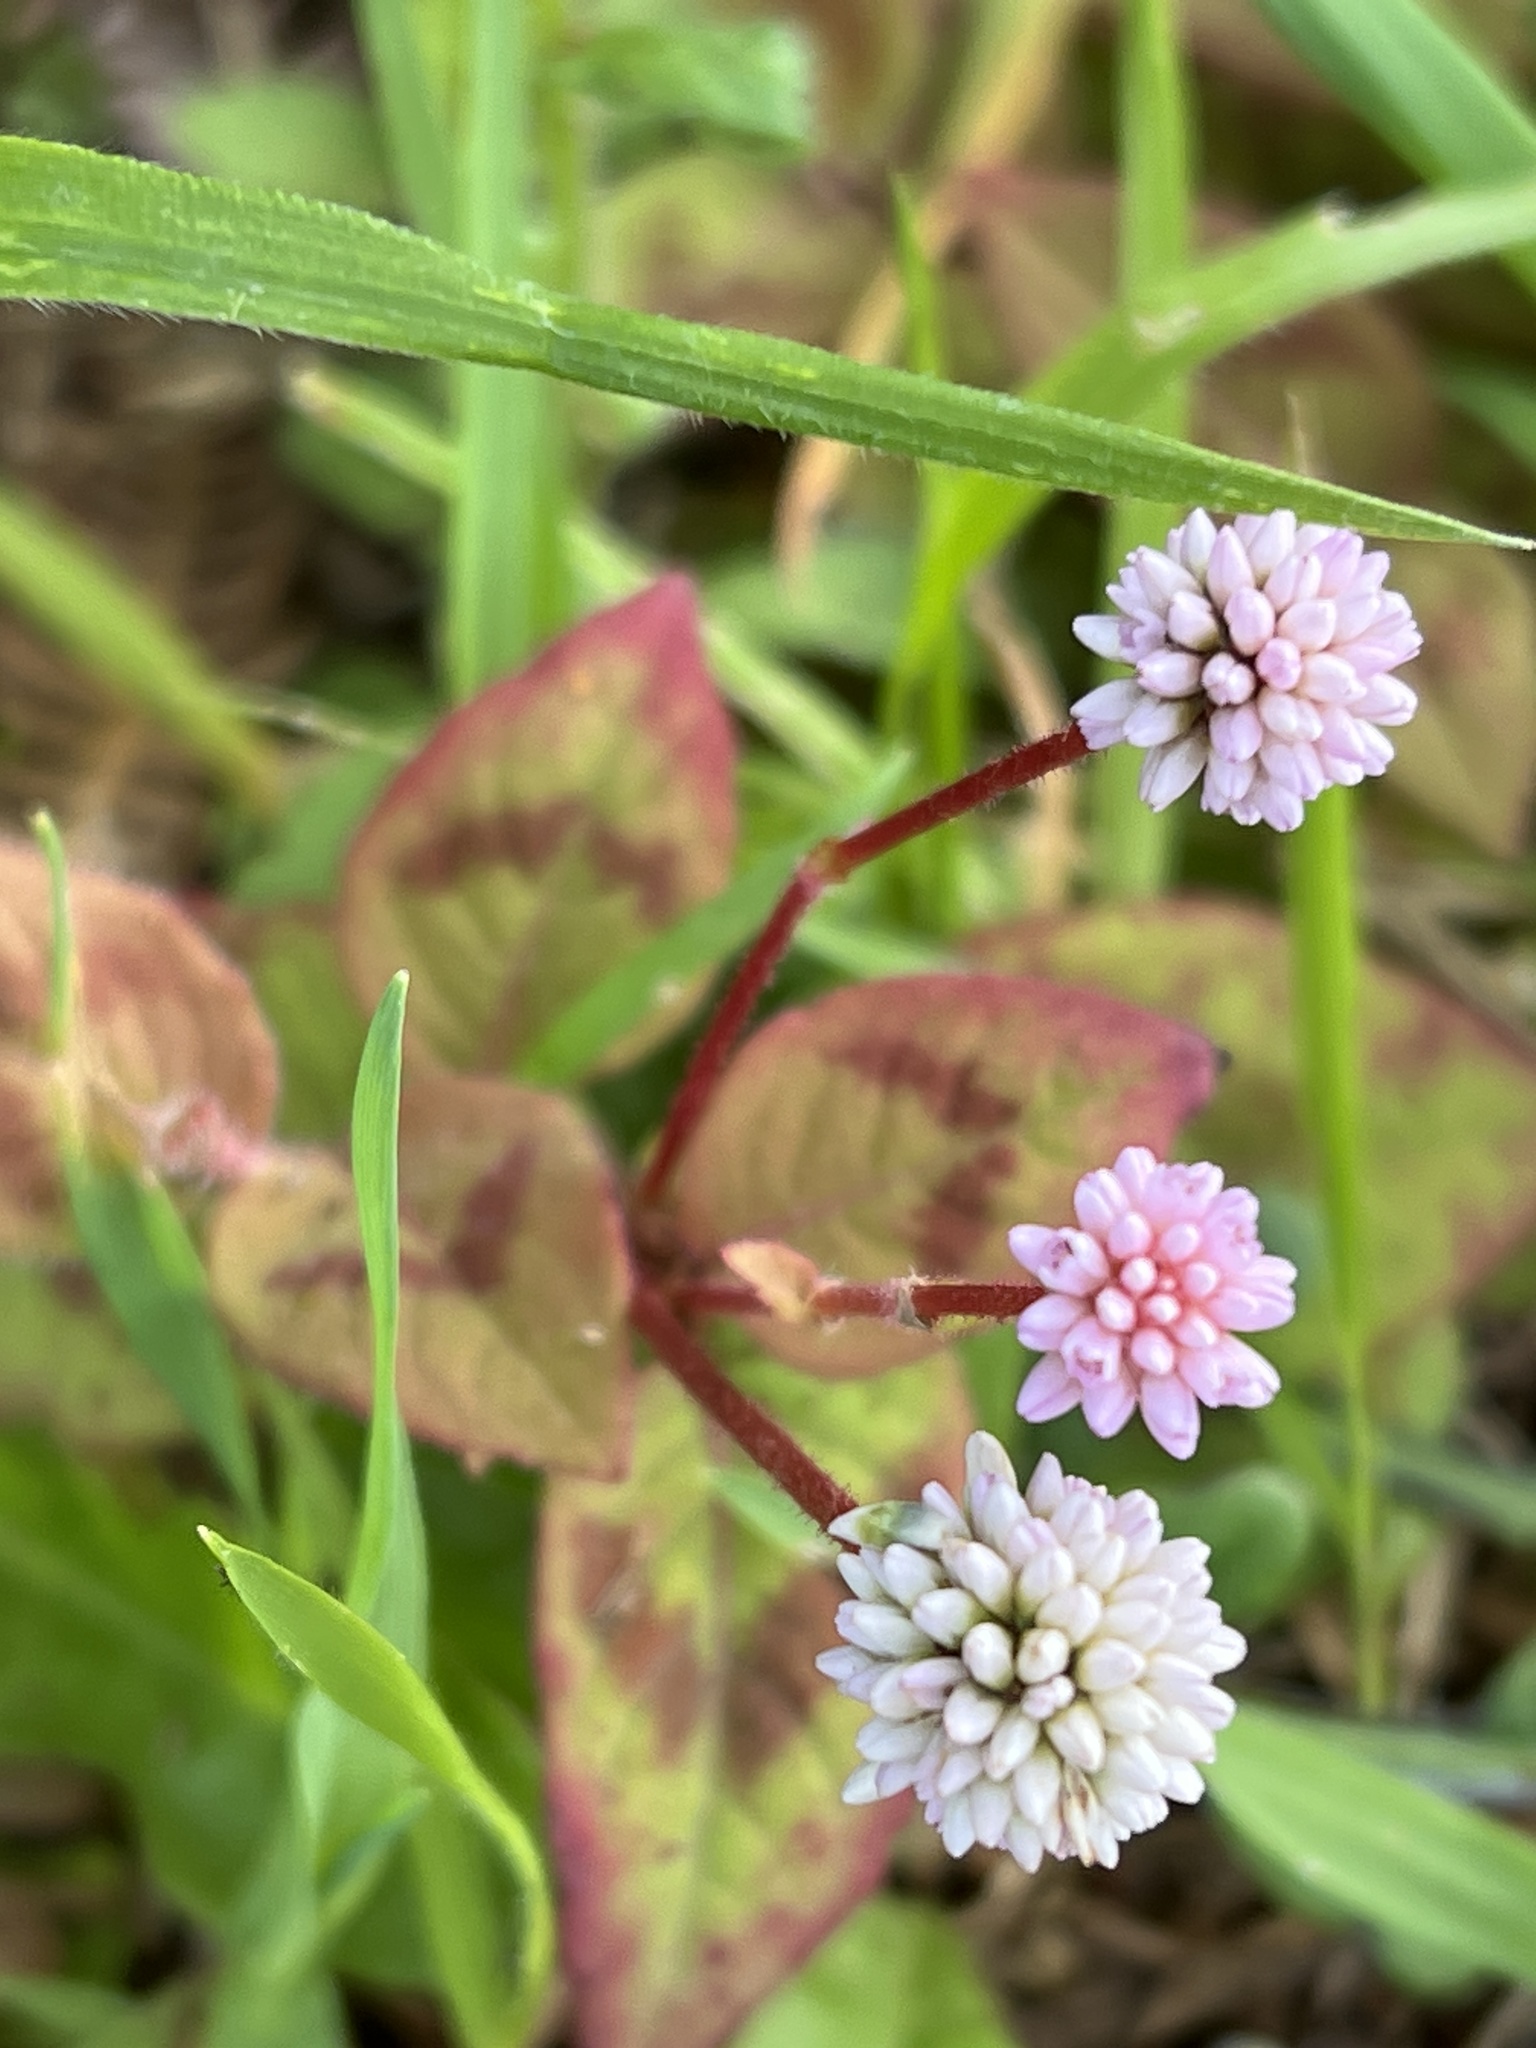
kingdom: Plantae
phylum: Tracheophyta
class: Magnoliopsida
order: Caryophyllales
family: Polygonaceae
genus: Persicaria
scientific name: Persicaria capitata
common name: Pinkhead smartweed
